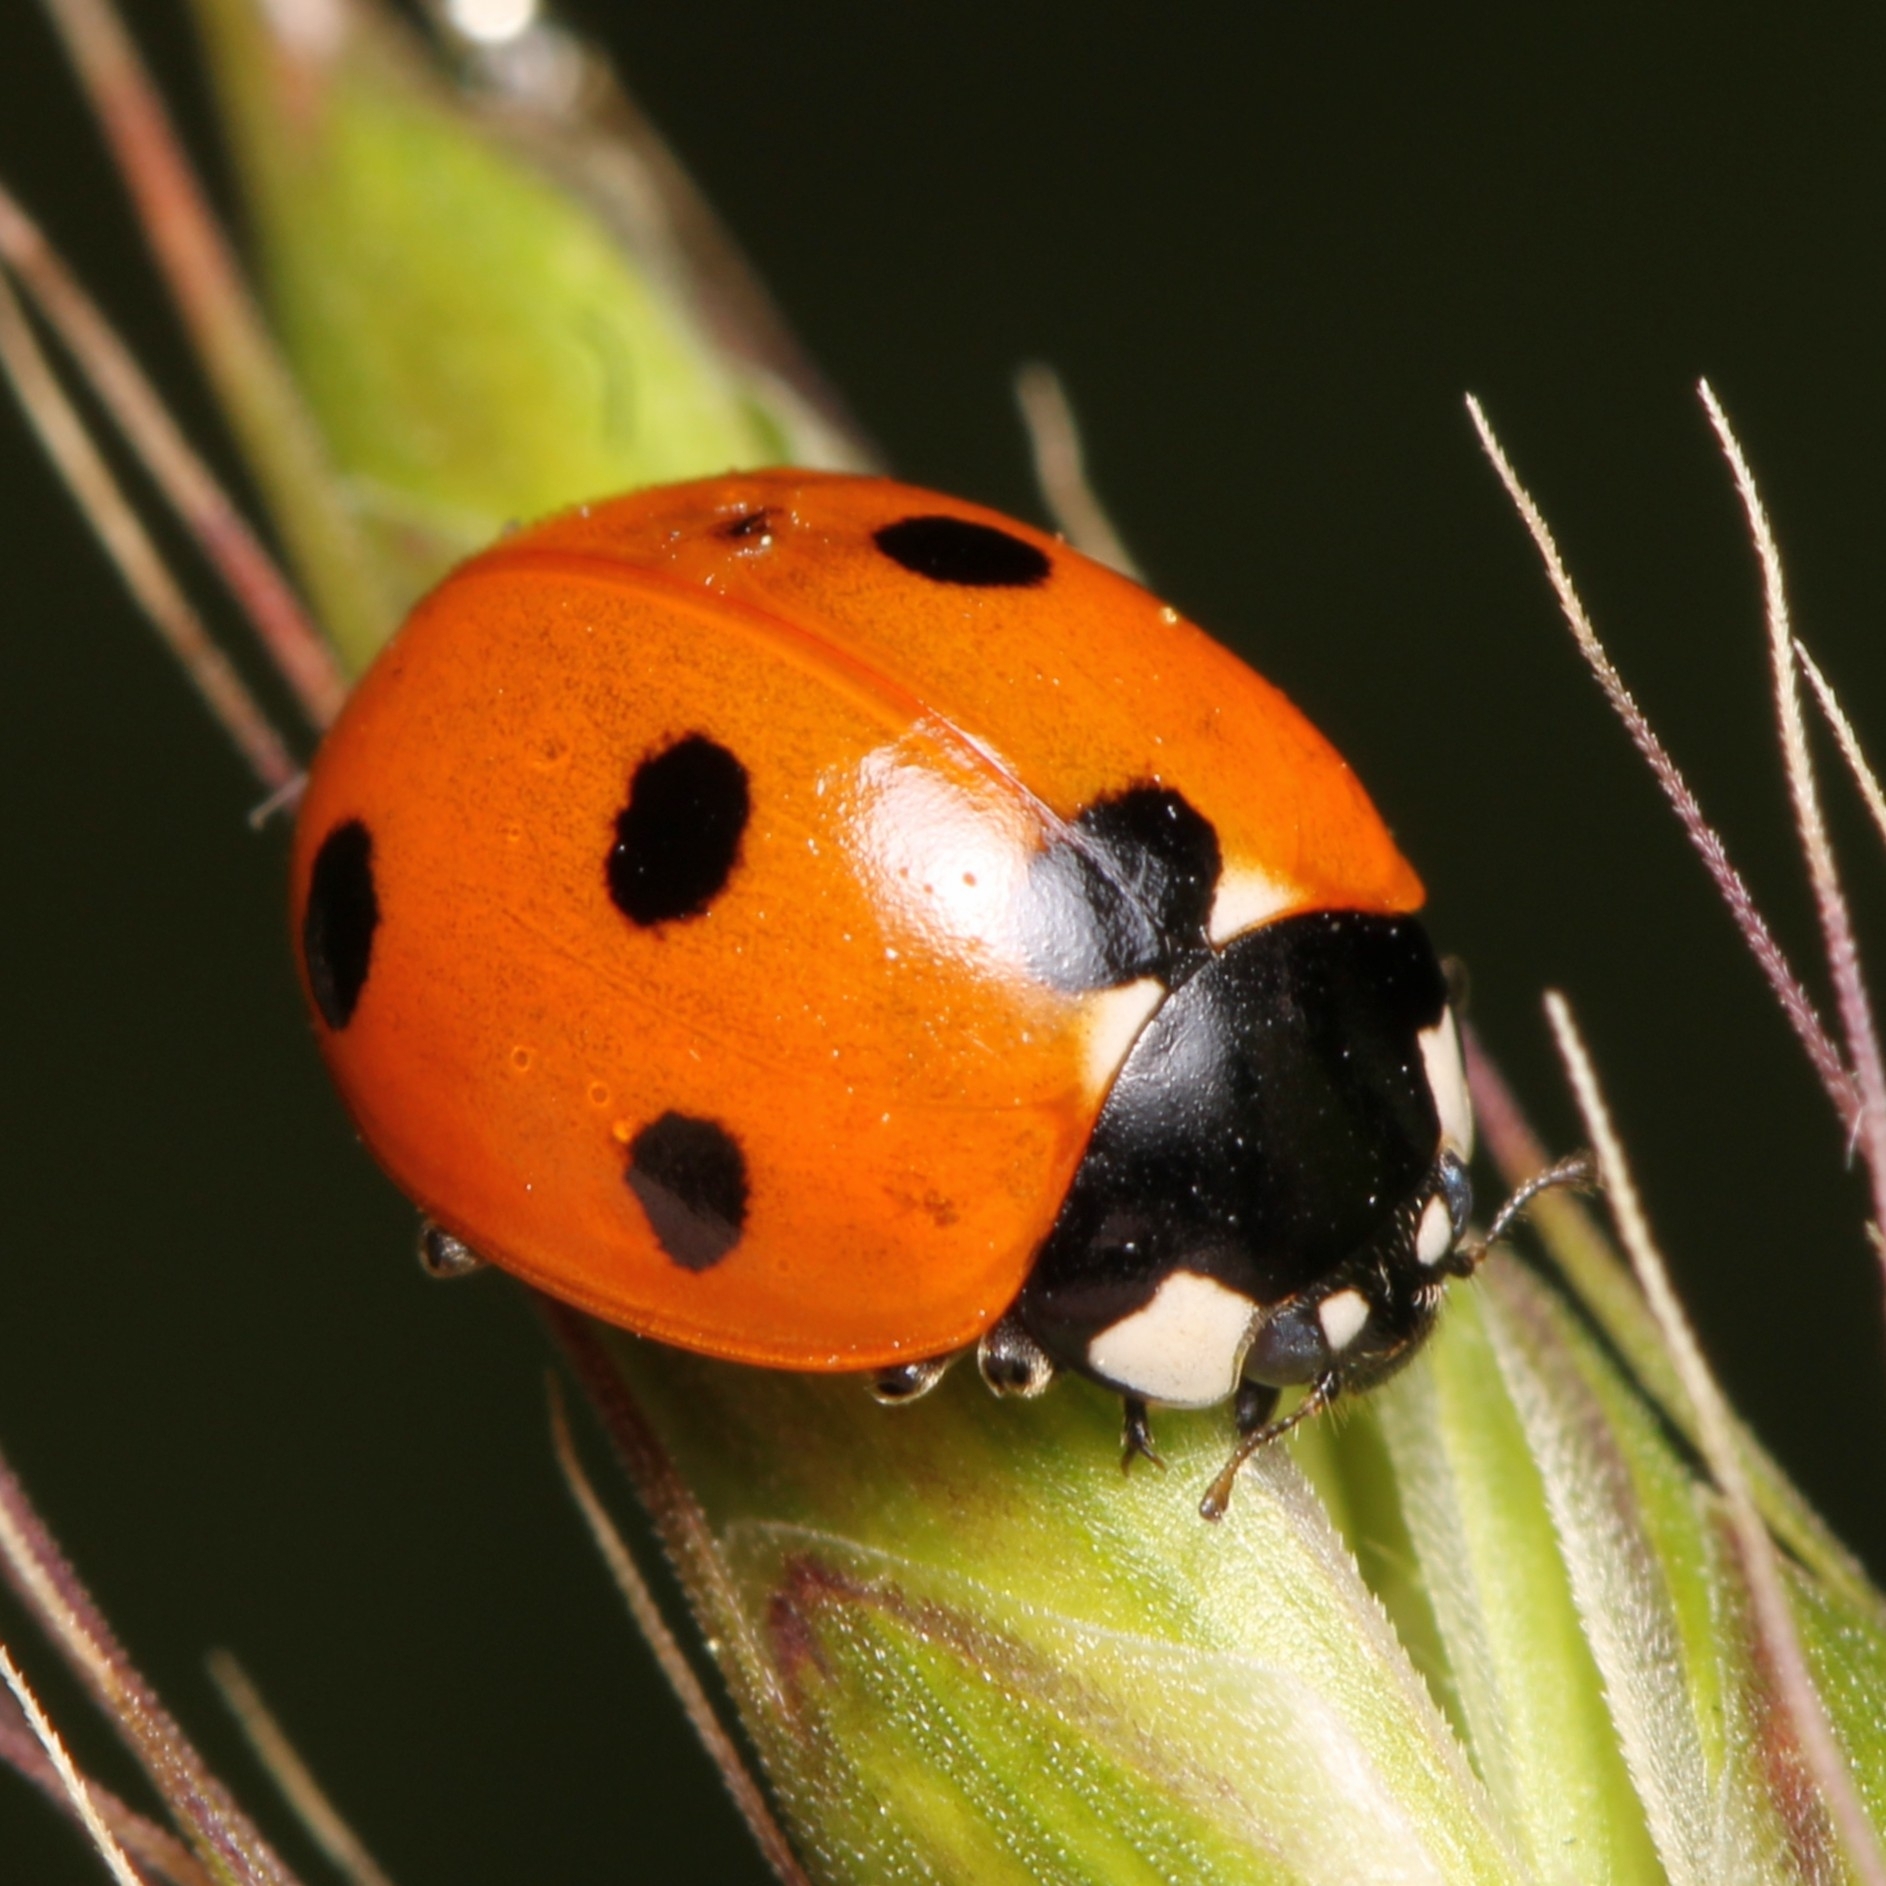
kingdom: Animalia
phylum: Arthropoda
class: Insecta
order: Coleoptera
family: Coccinellidae
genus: Coccinella
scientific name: Coccinella septempunctata
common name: Sevenspotted lady beetle
